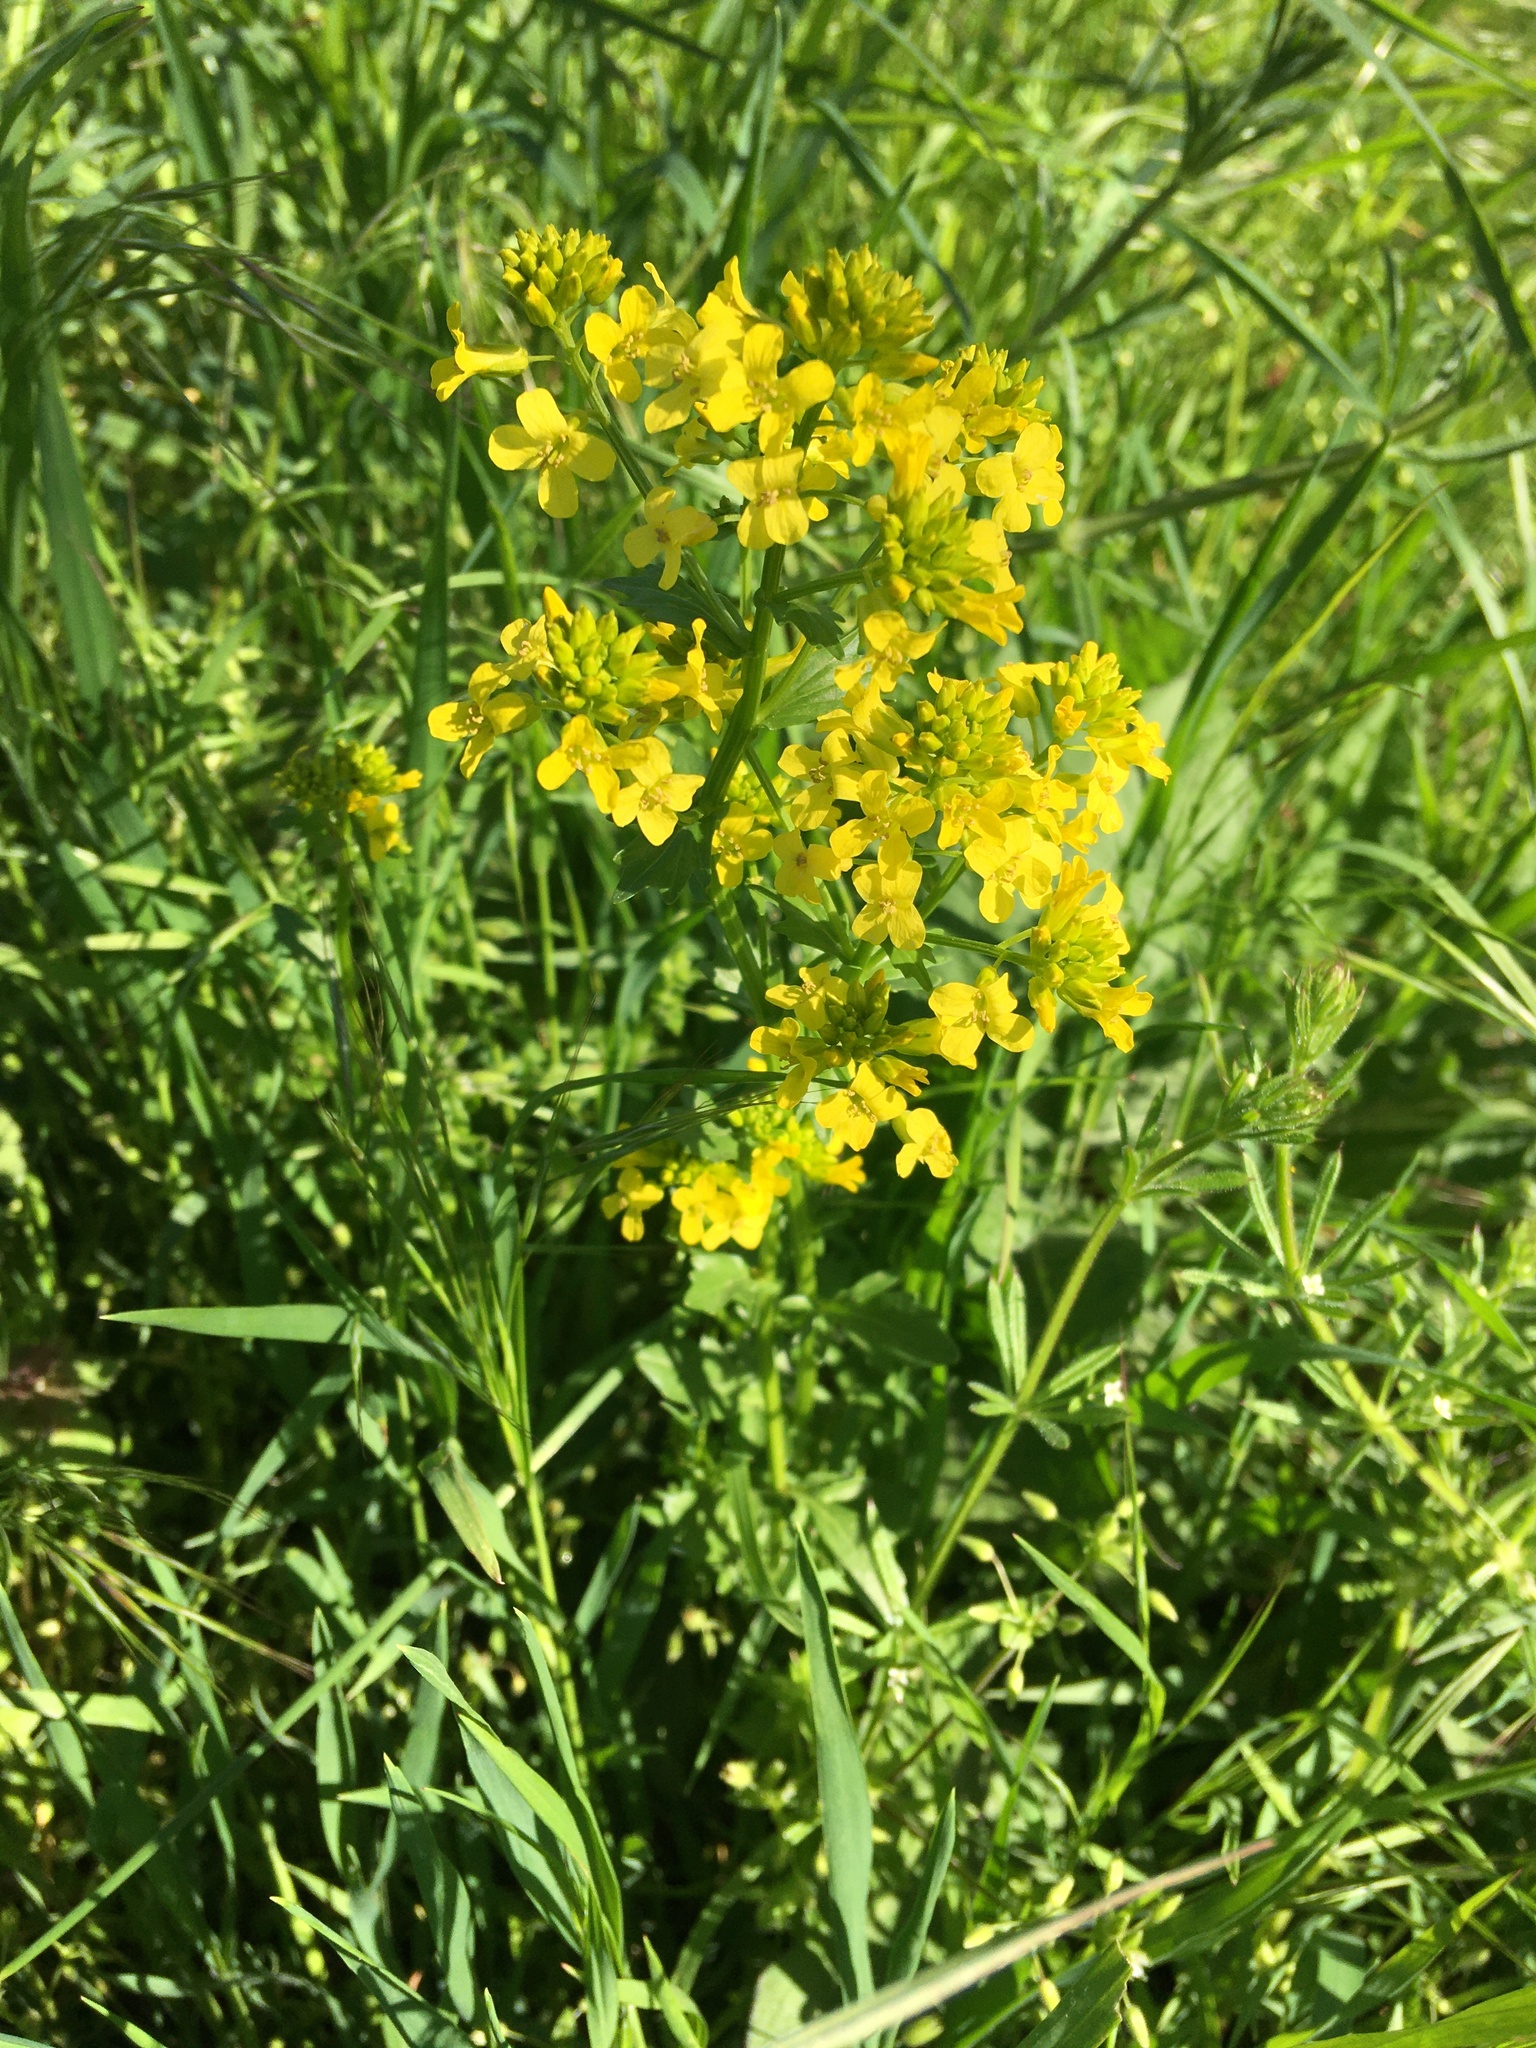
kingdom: Plantae
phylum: Tracheophyta
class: Magnoliopsida
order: Brassicales
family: Brassicaceae
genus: Barbarea
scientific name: Barbarea vulgaris
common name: Cressy-greens
